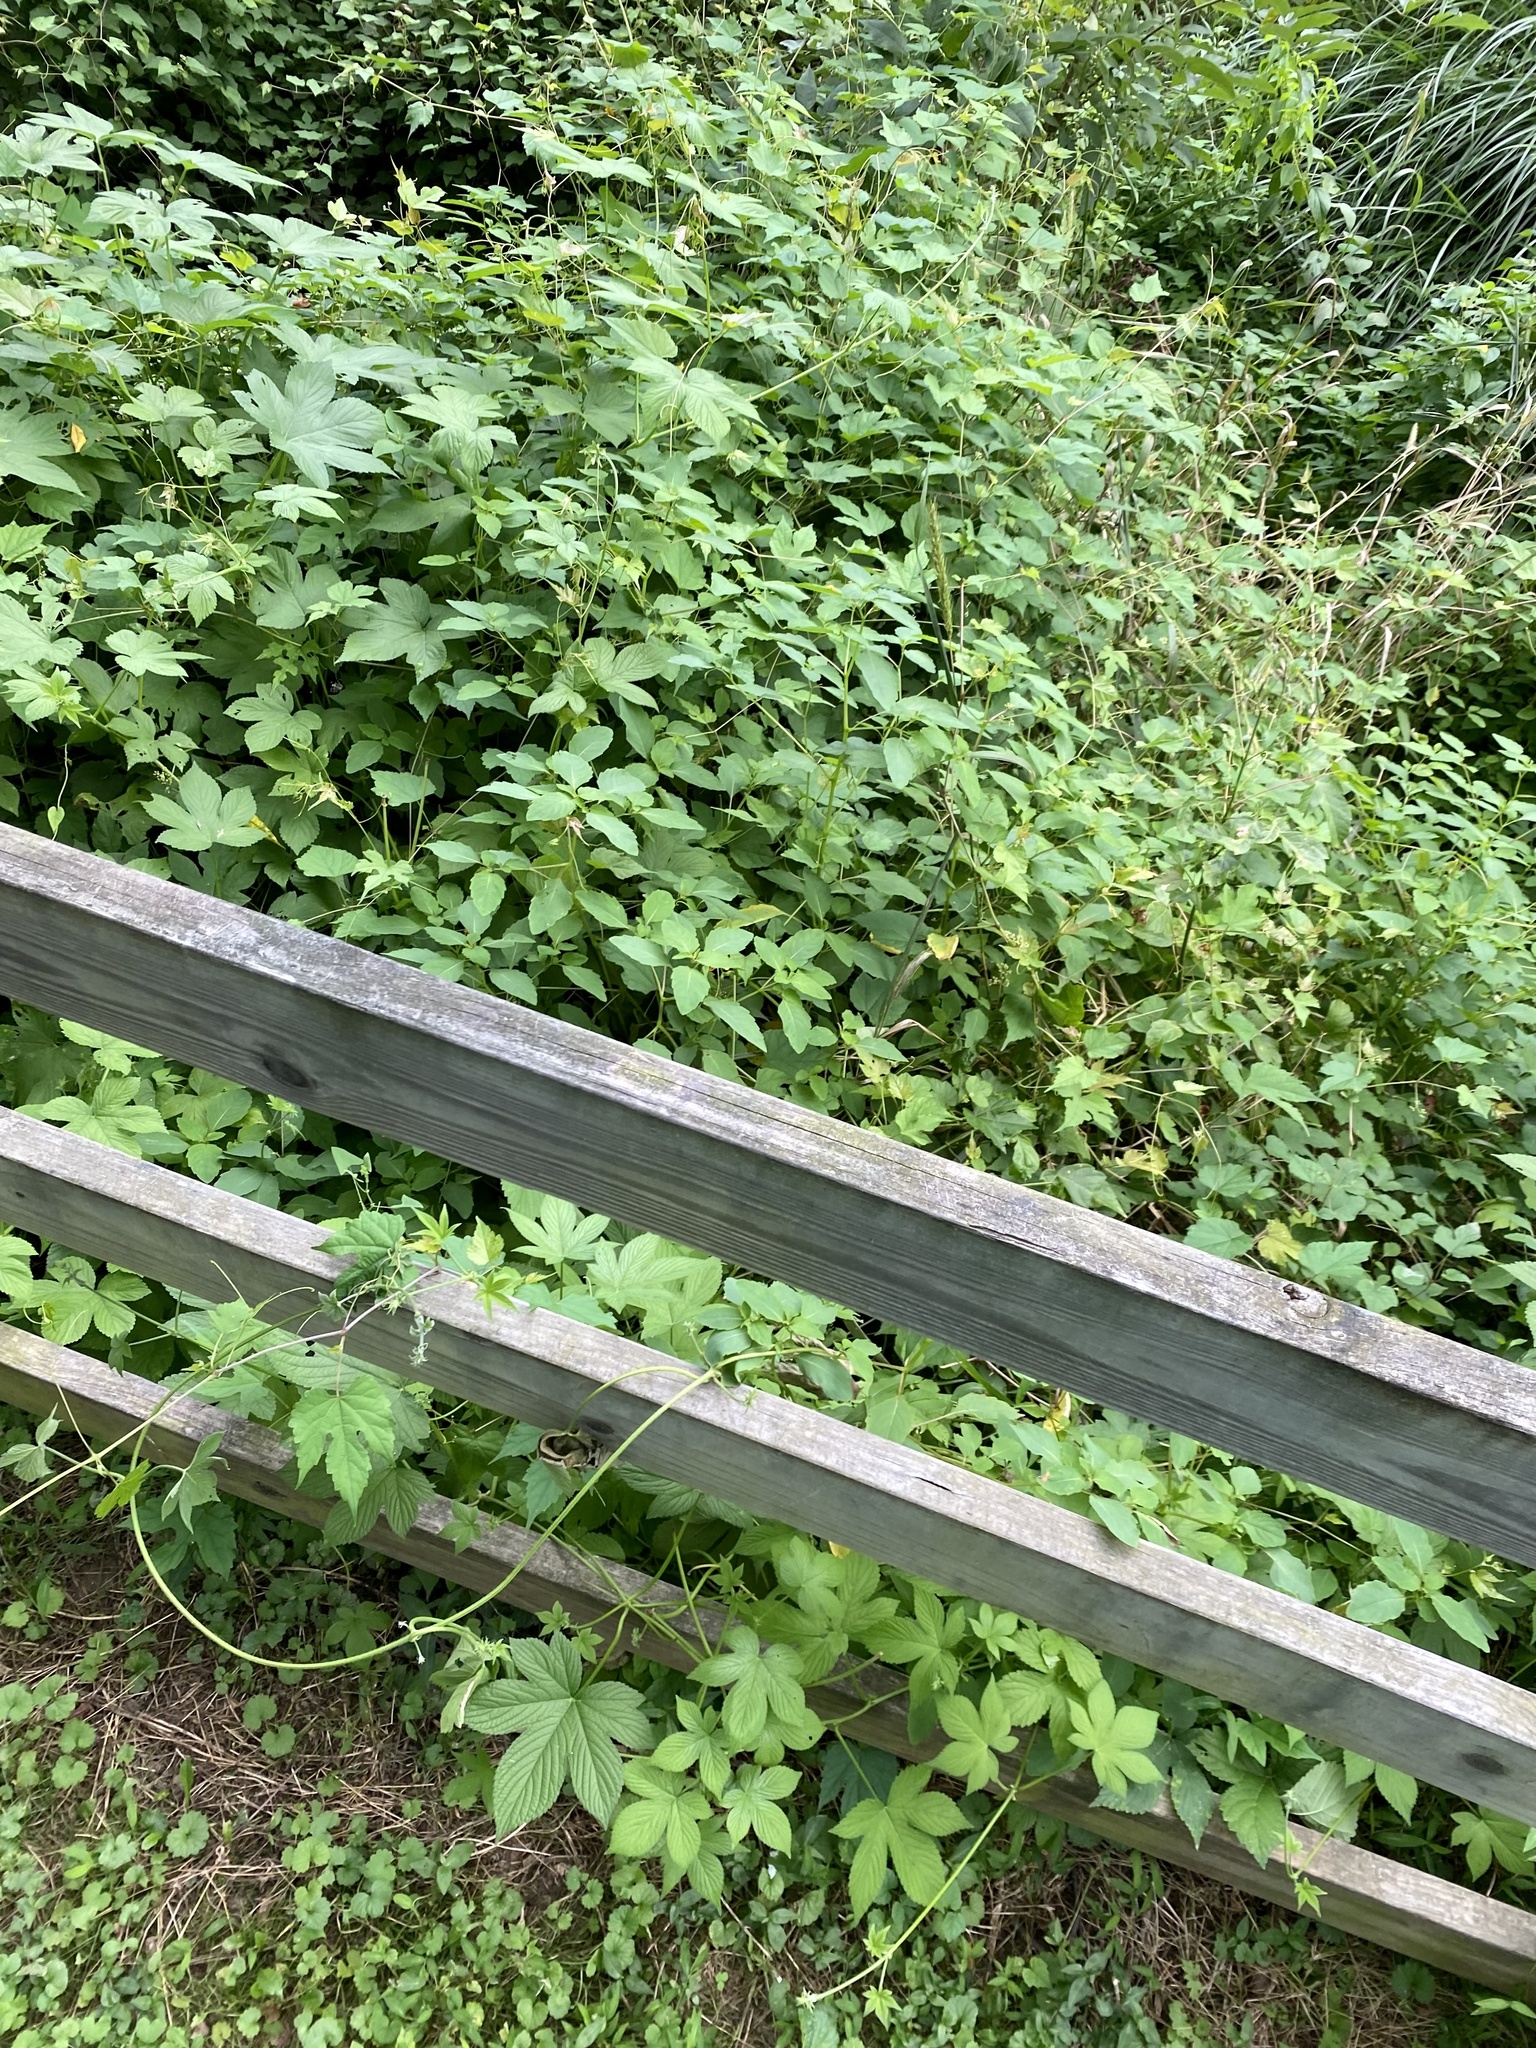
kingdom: Plantae
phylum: Tracheophyta
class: Magnoliopsida
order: Rosales
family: Cannabaceae
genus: Humulus
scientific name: Humulus scandens
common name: Japanese hop
